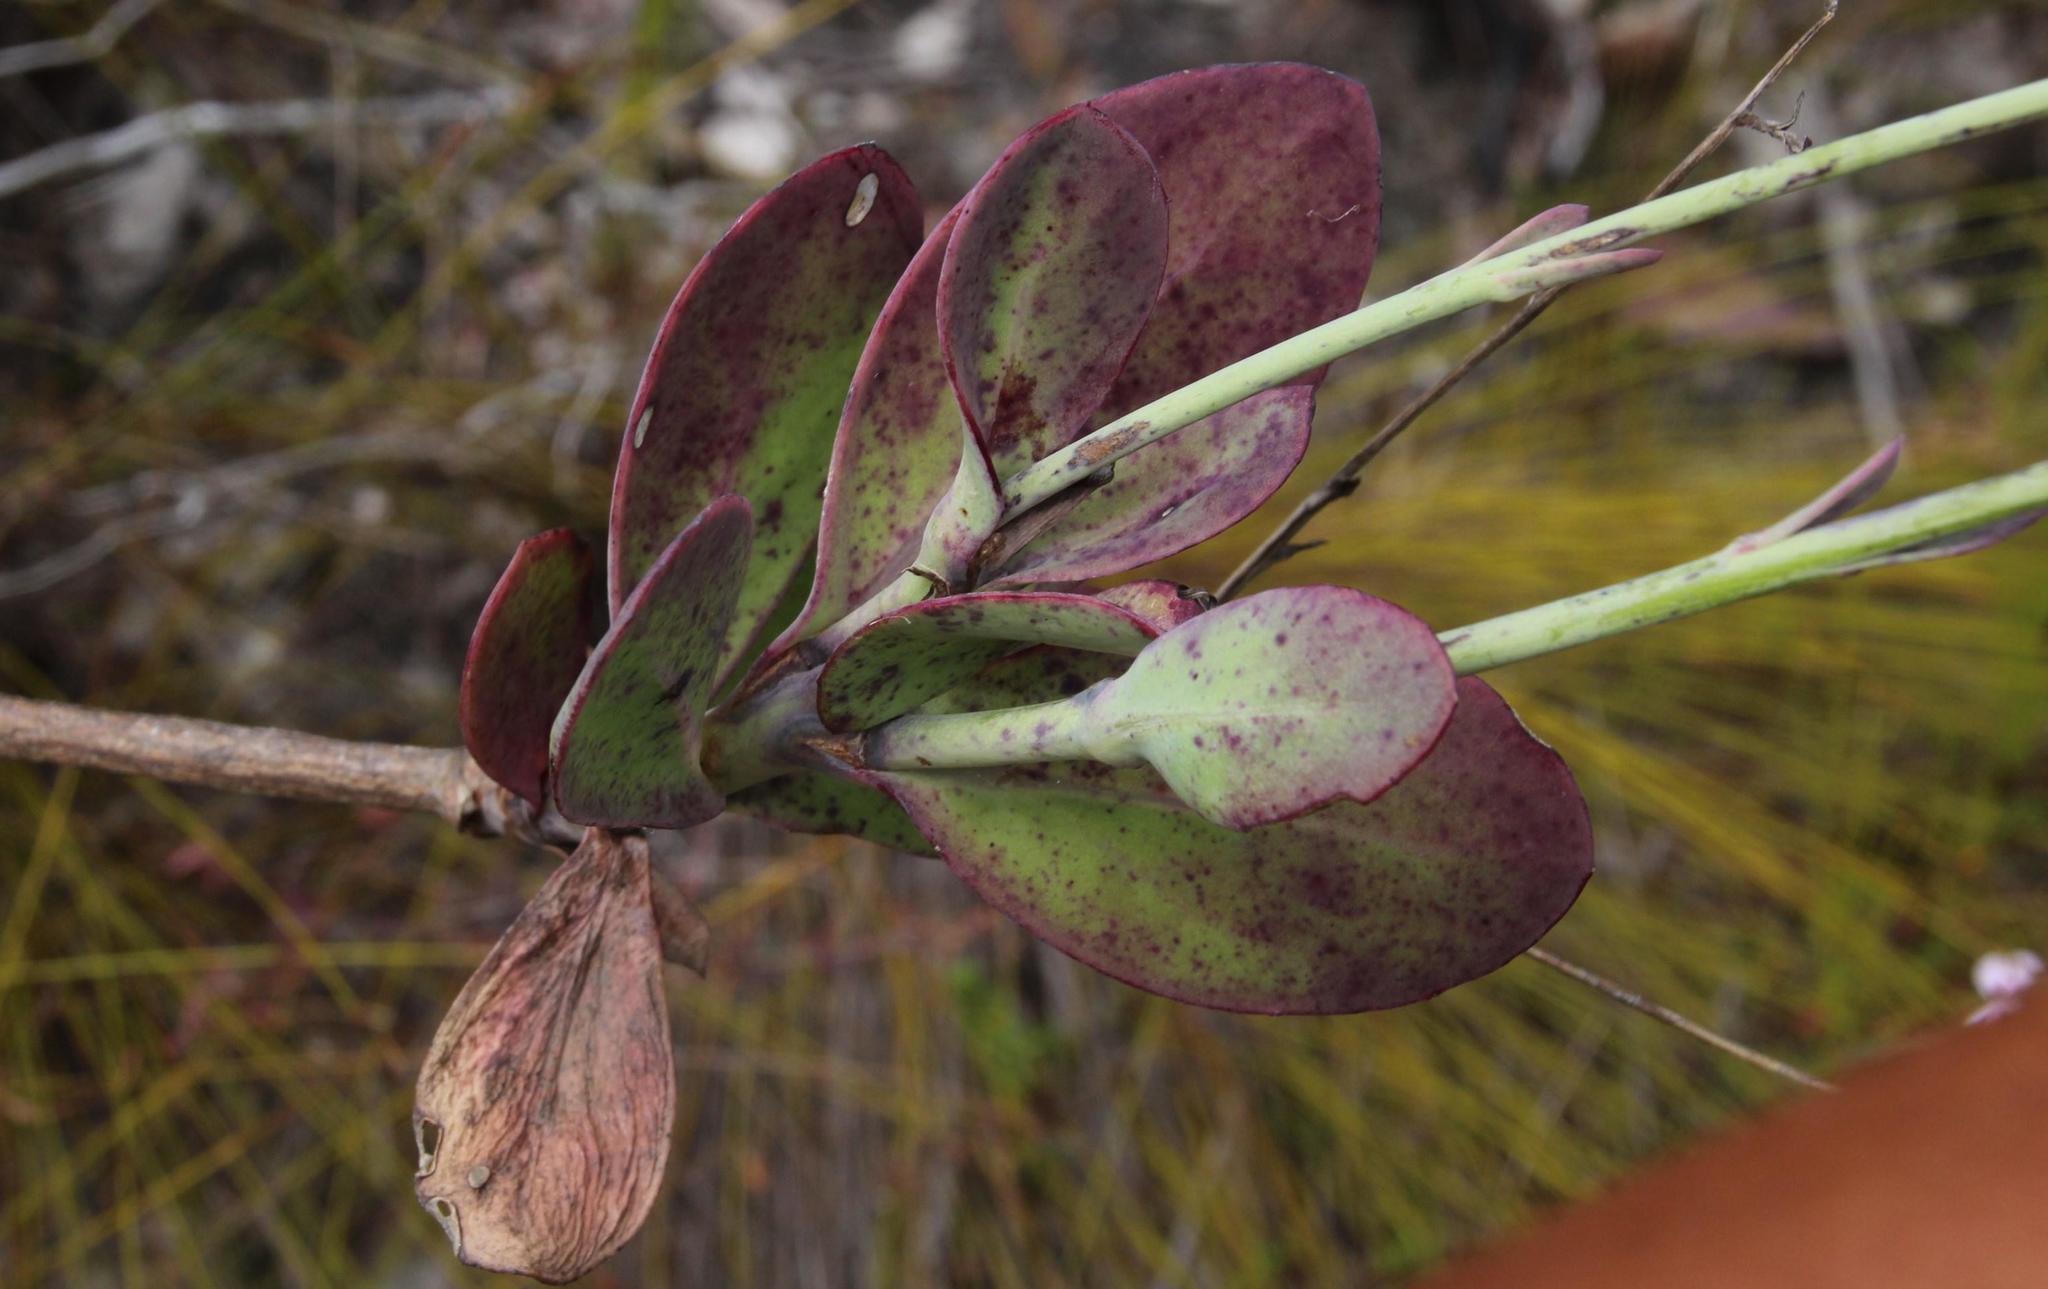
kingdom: Plantae
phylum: Tracheophyta
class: Magnoliopsida
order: Asterales
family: Asteraceae
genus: Othonna
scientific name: Othonna quinquedentata
